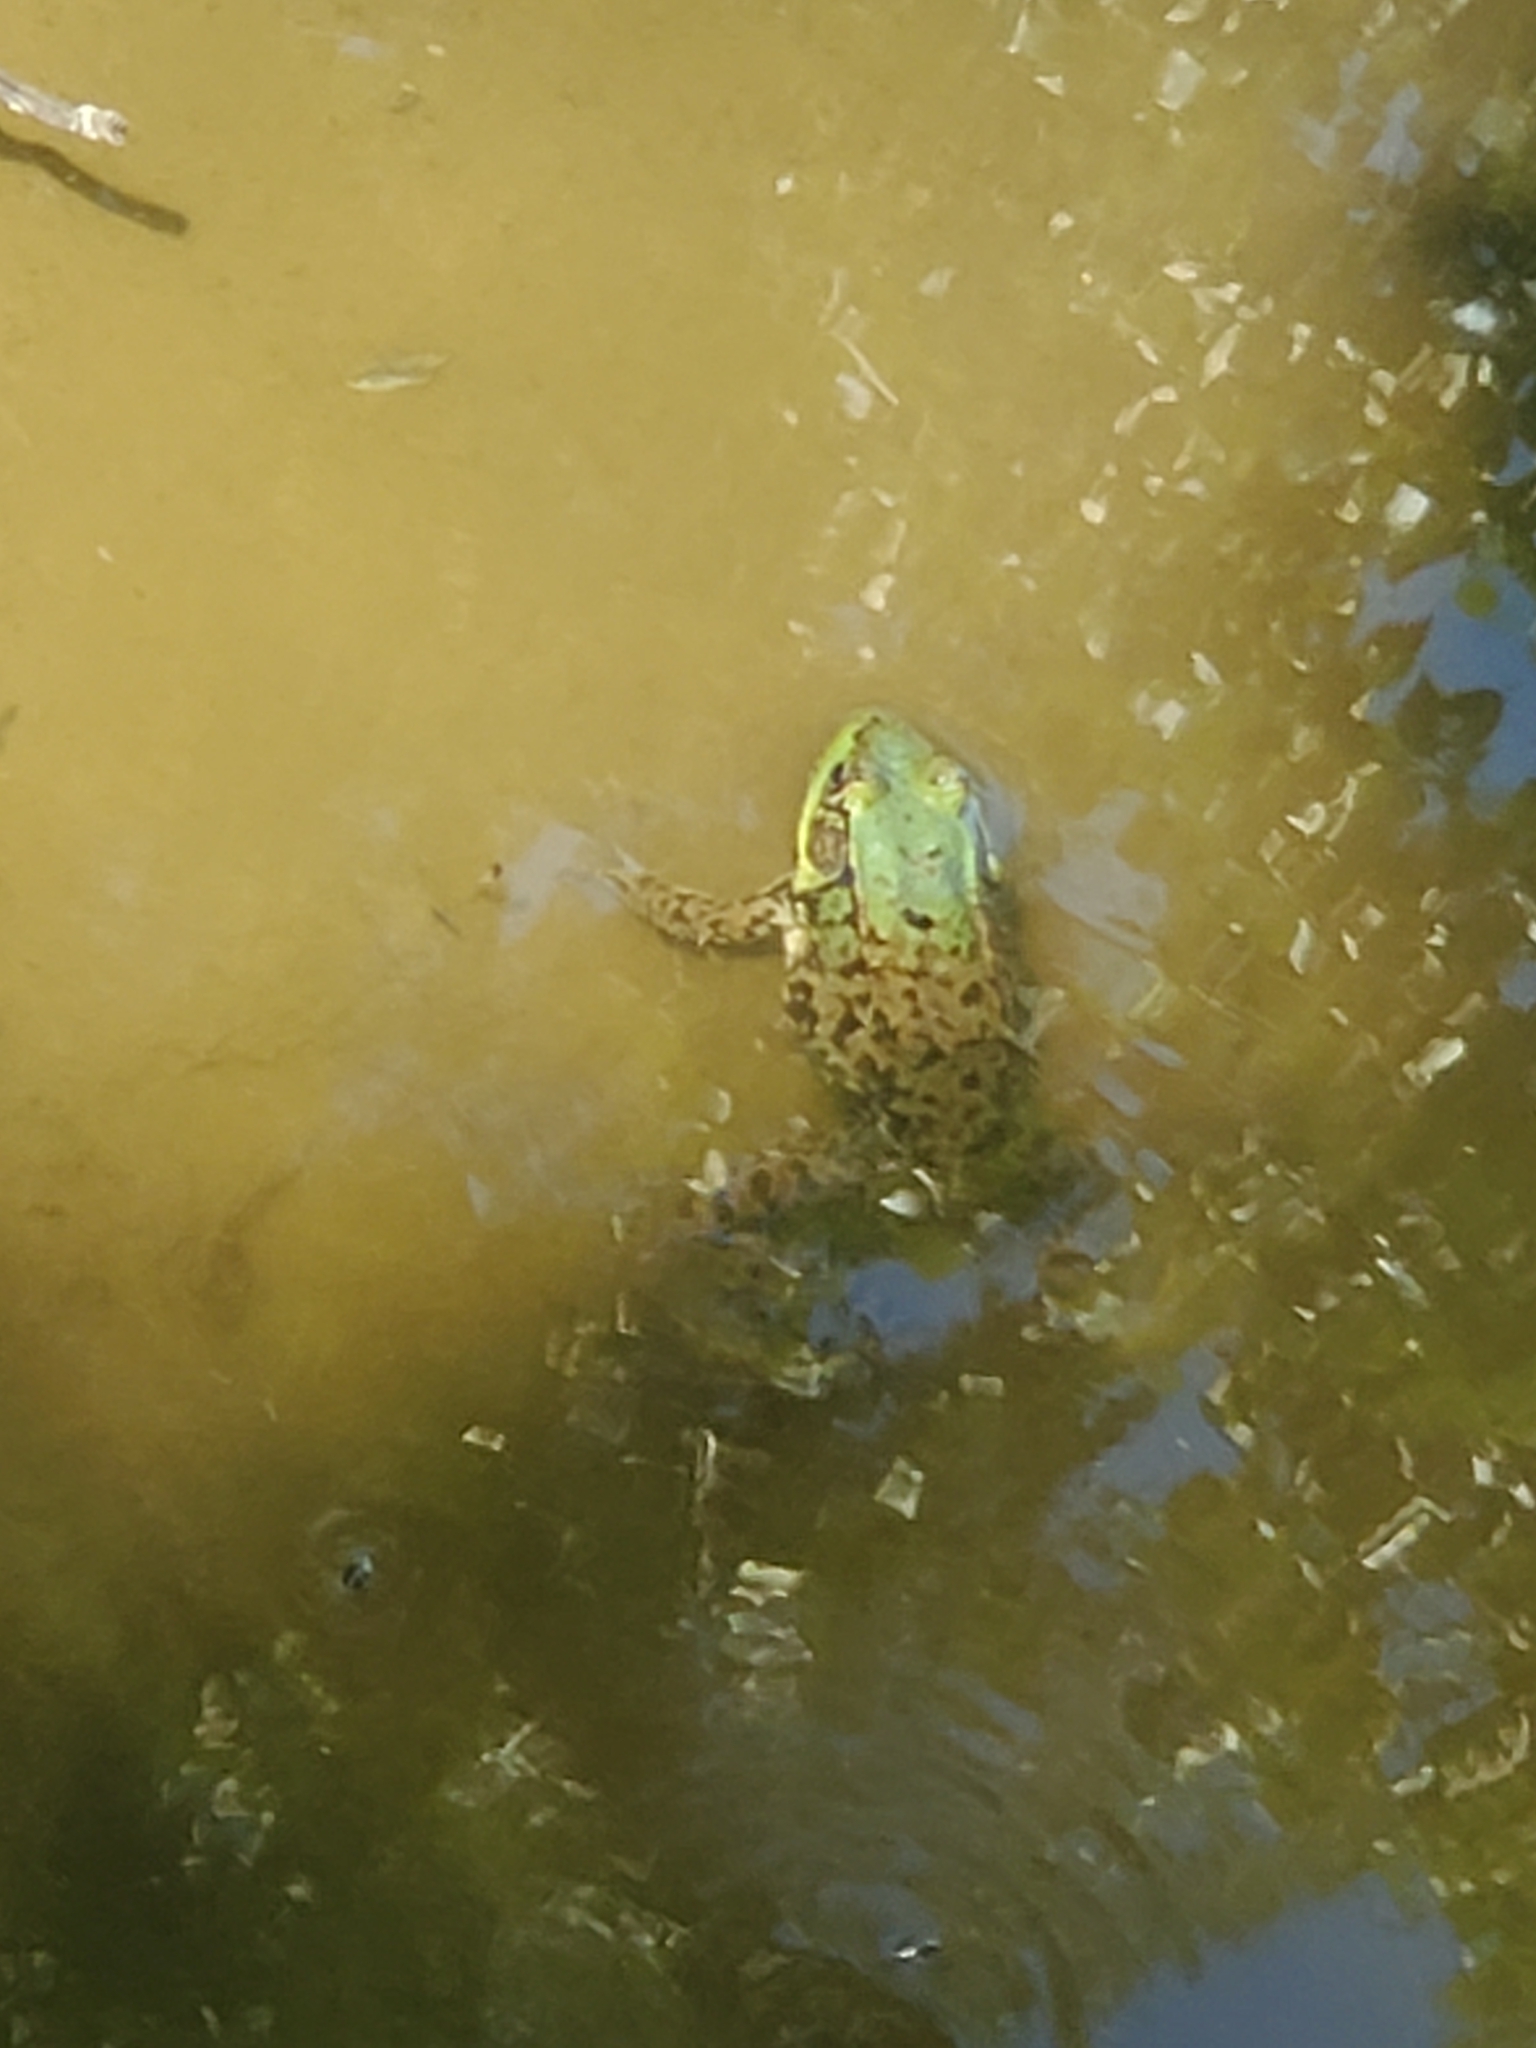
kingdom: Animalia
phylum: Chordata
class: Amphibia
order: Anura
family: Ranidae
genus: Lithobates
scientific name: Lithobates clamitans
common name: Green frog
